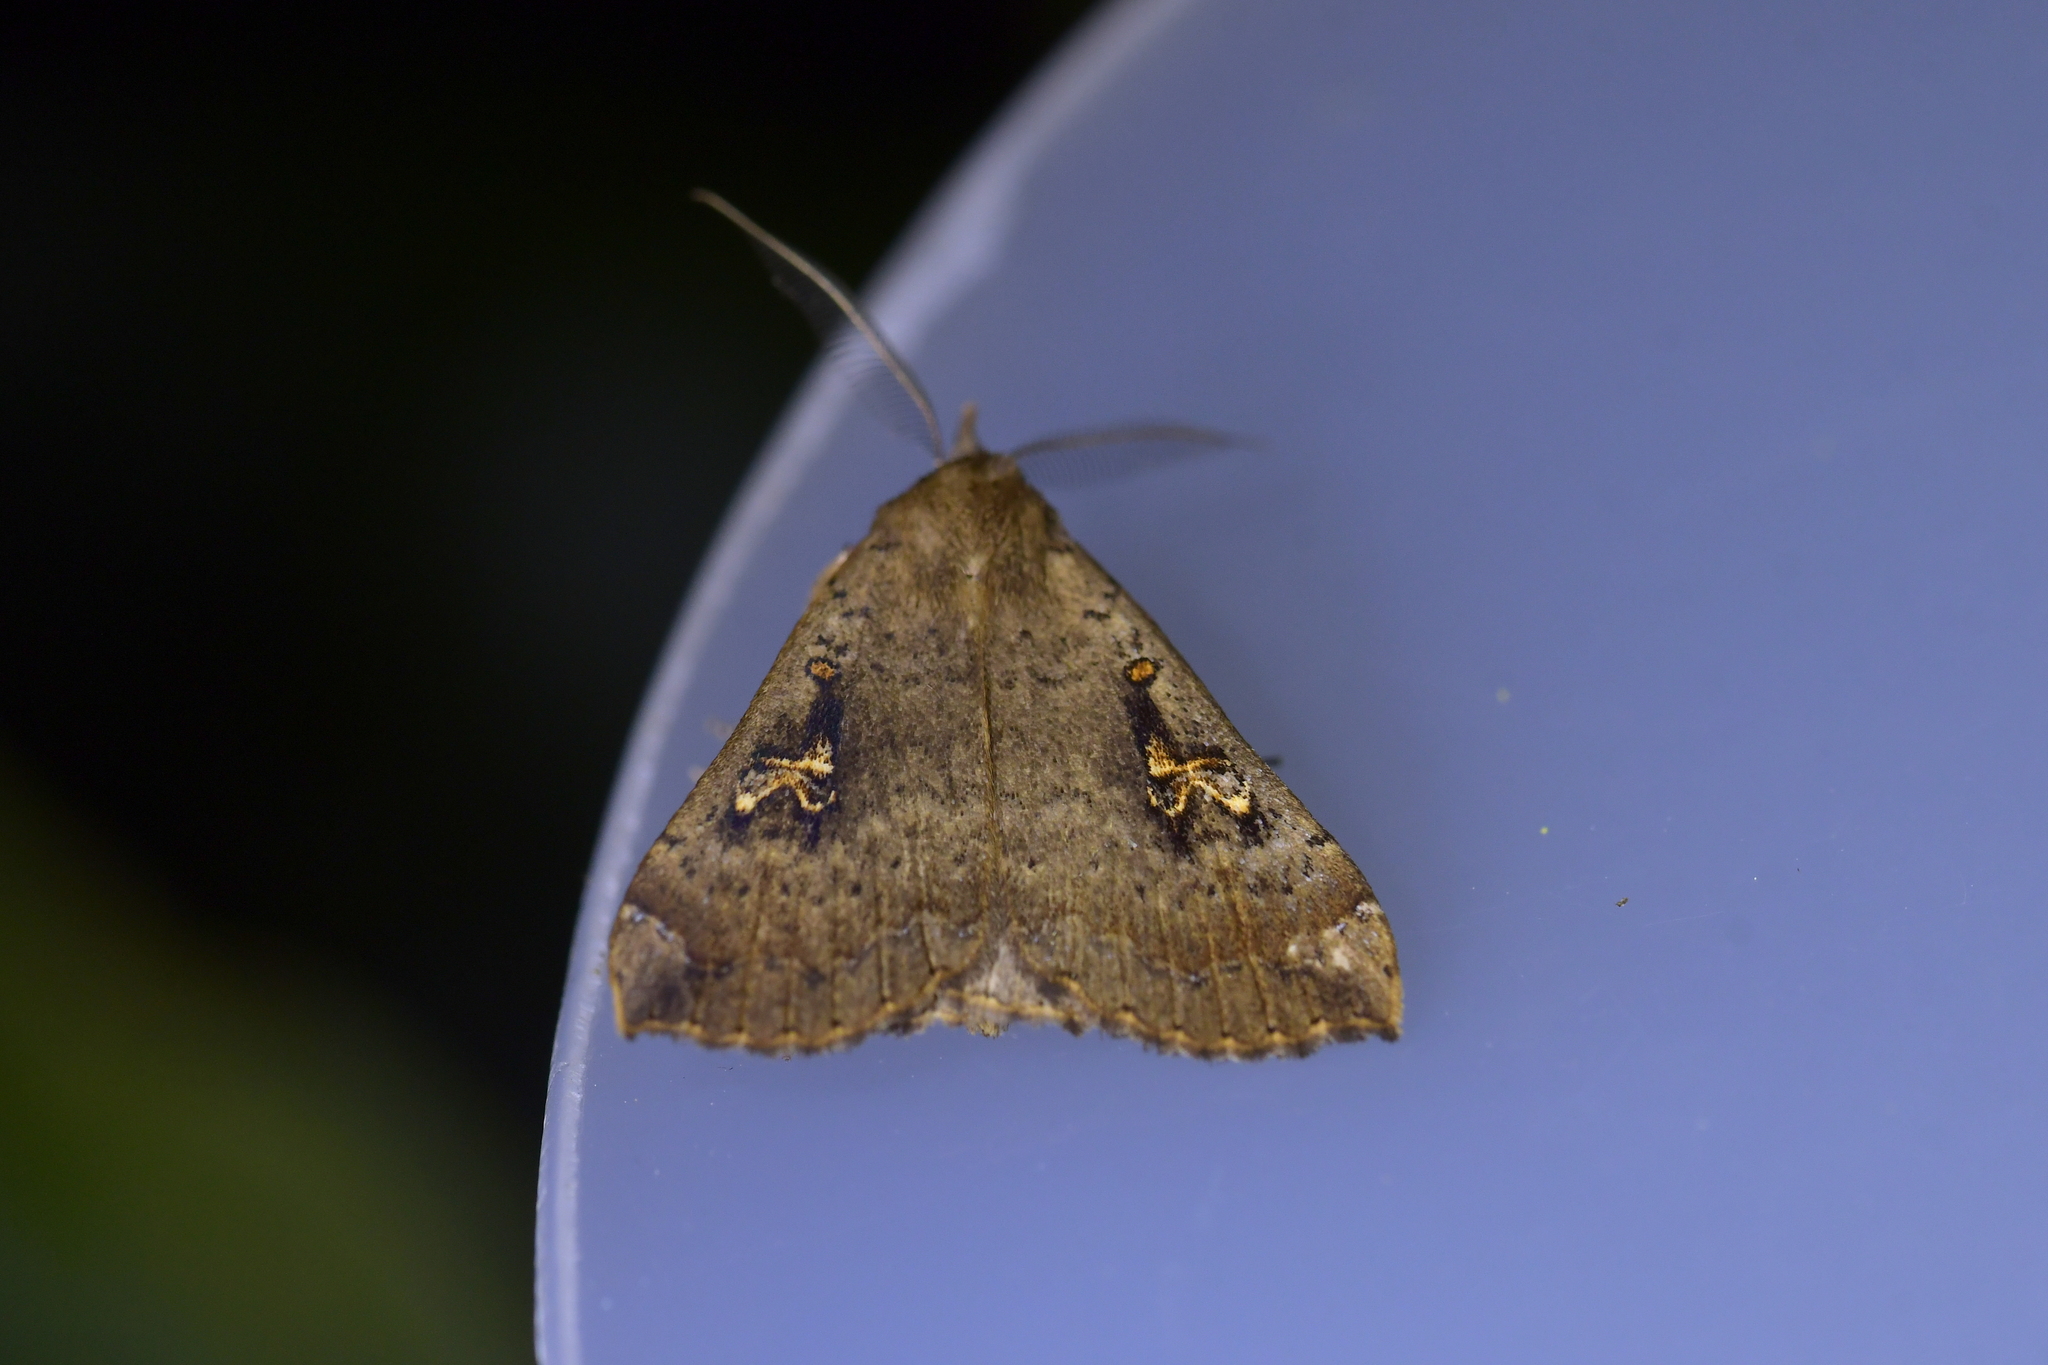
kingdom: Animalia
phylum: Arthropoda
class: Insecta
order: Lepidoptera
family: Erebidae
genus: Rhapsa
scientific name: Rhapsa scotosialis
